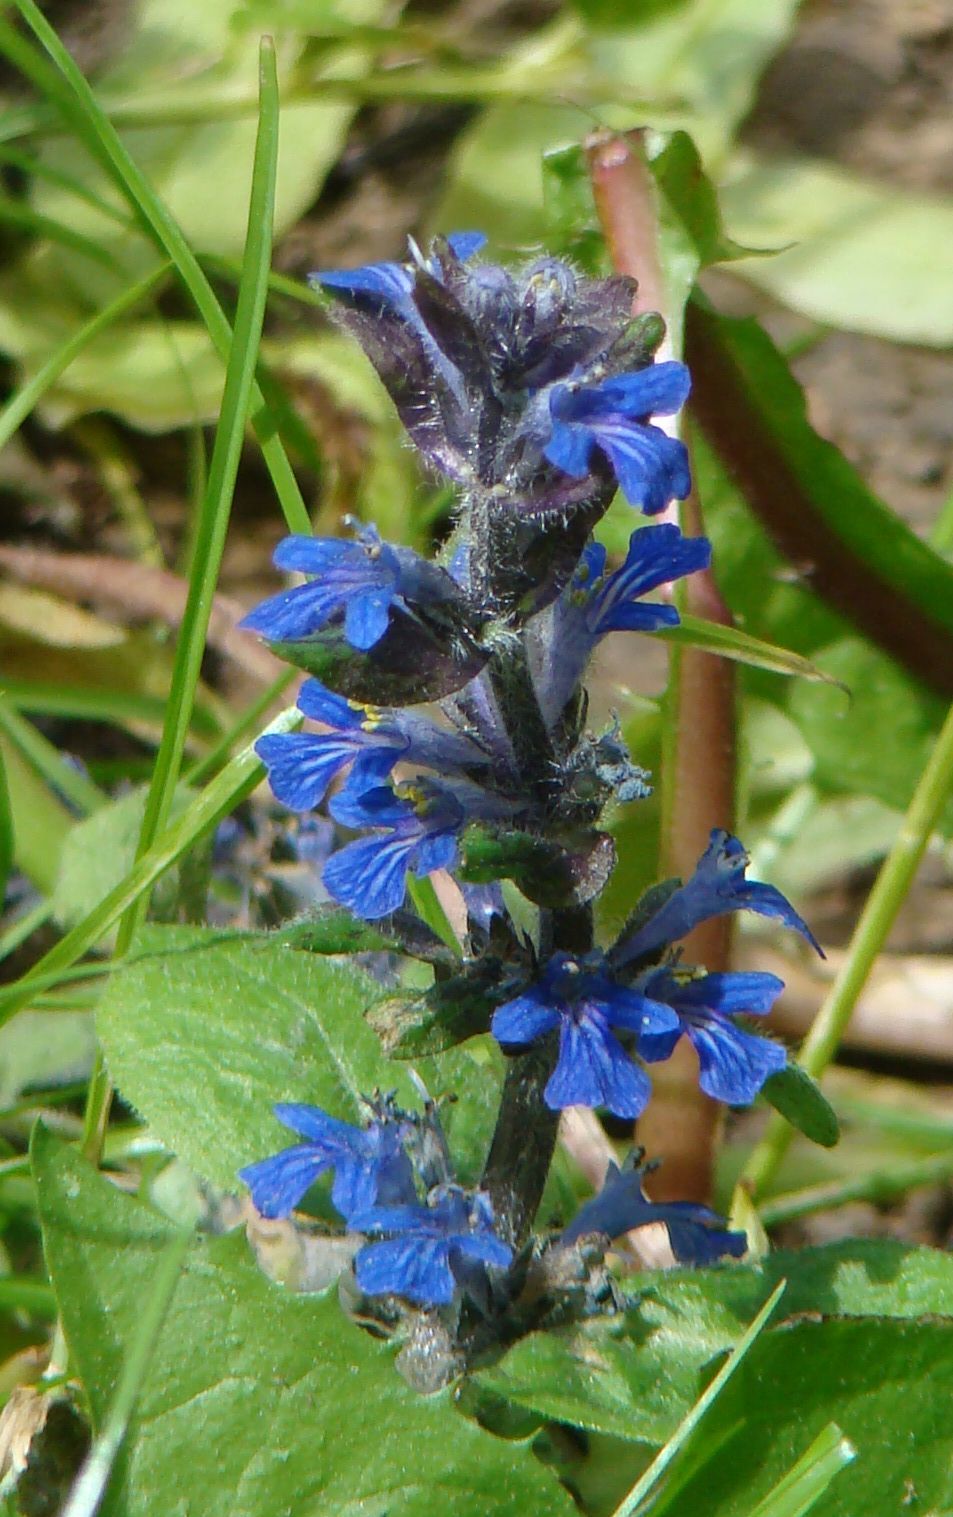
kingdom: Plantae
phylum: Tracheophyta
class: Magnoliopsida
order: Lamiales
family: Lamiaceae
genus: Ajuga
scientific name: Ajuga reptans
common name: Bugle
